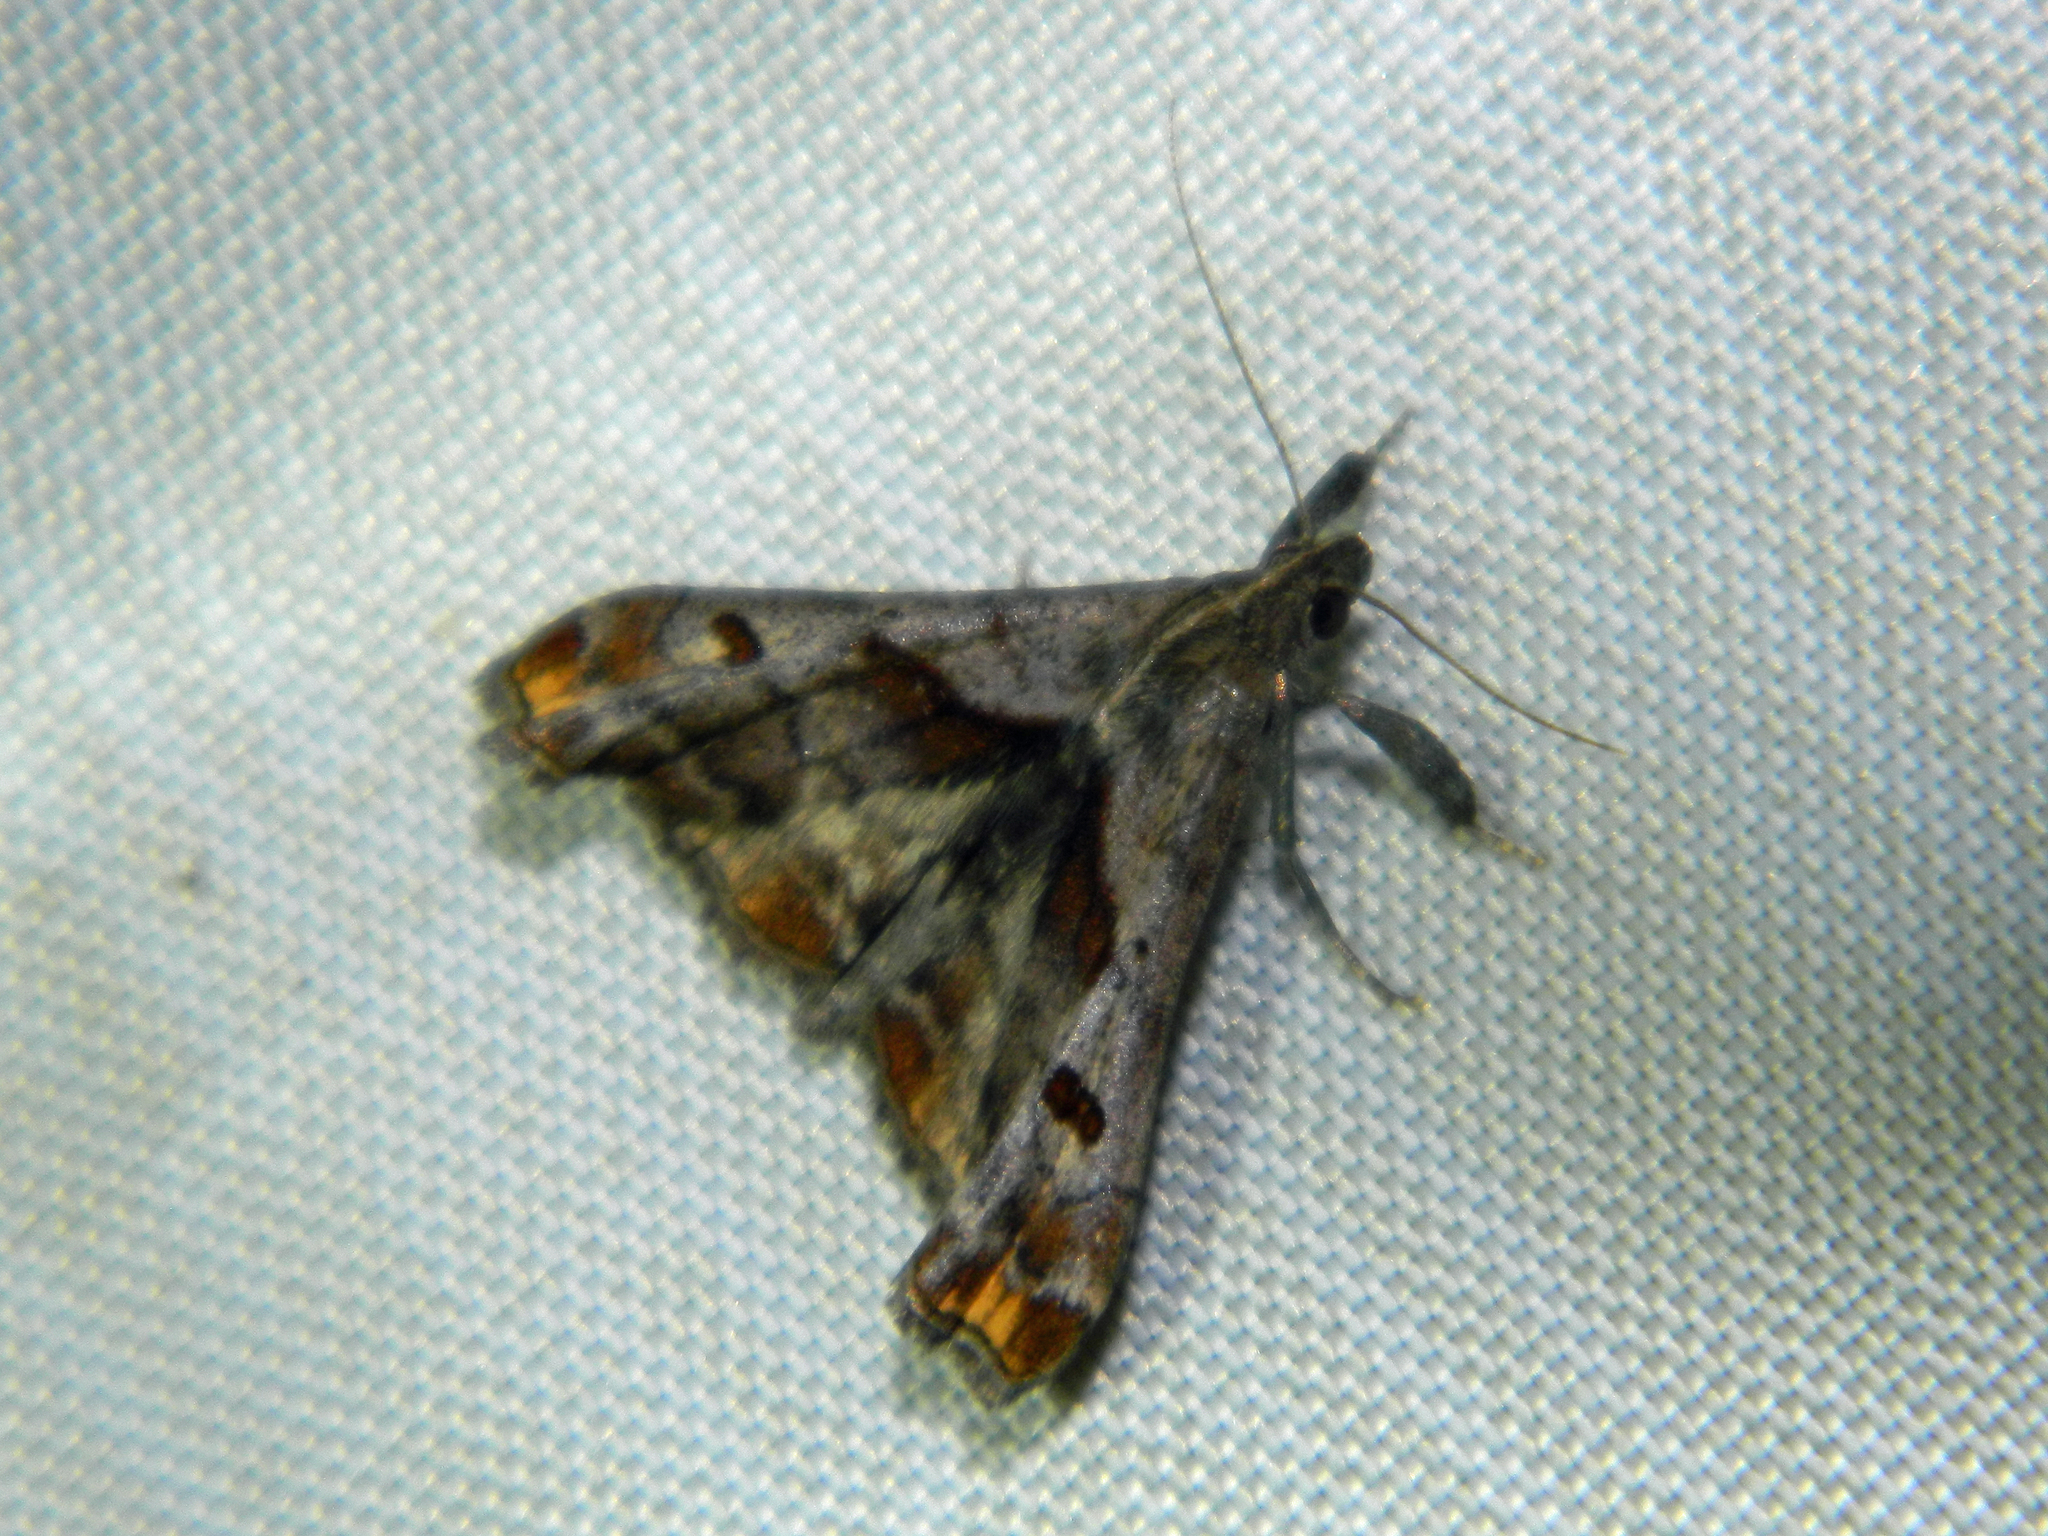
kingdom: Animalia
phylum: Arthropoda
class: Insecta
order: Lepidoptera
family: Erebidae
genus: Palthis
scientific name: Palthis angulalis
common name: Dark-spotted palthis moth
